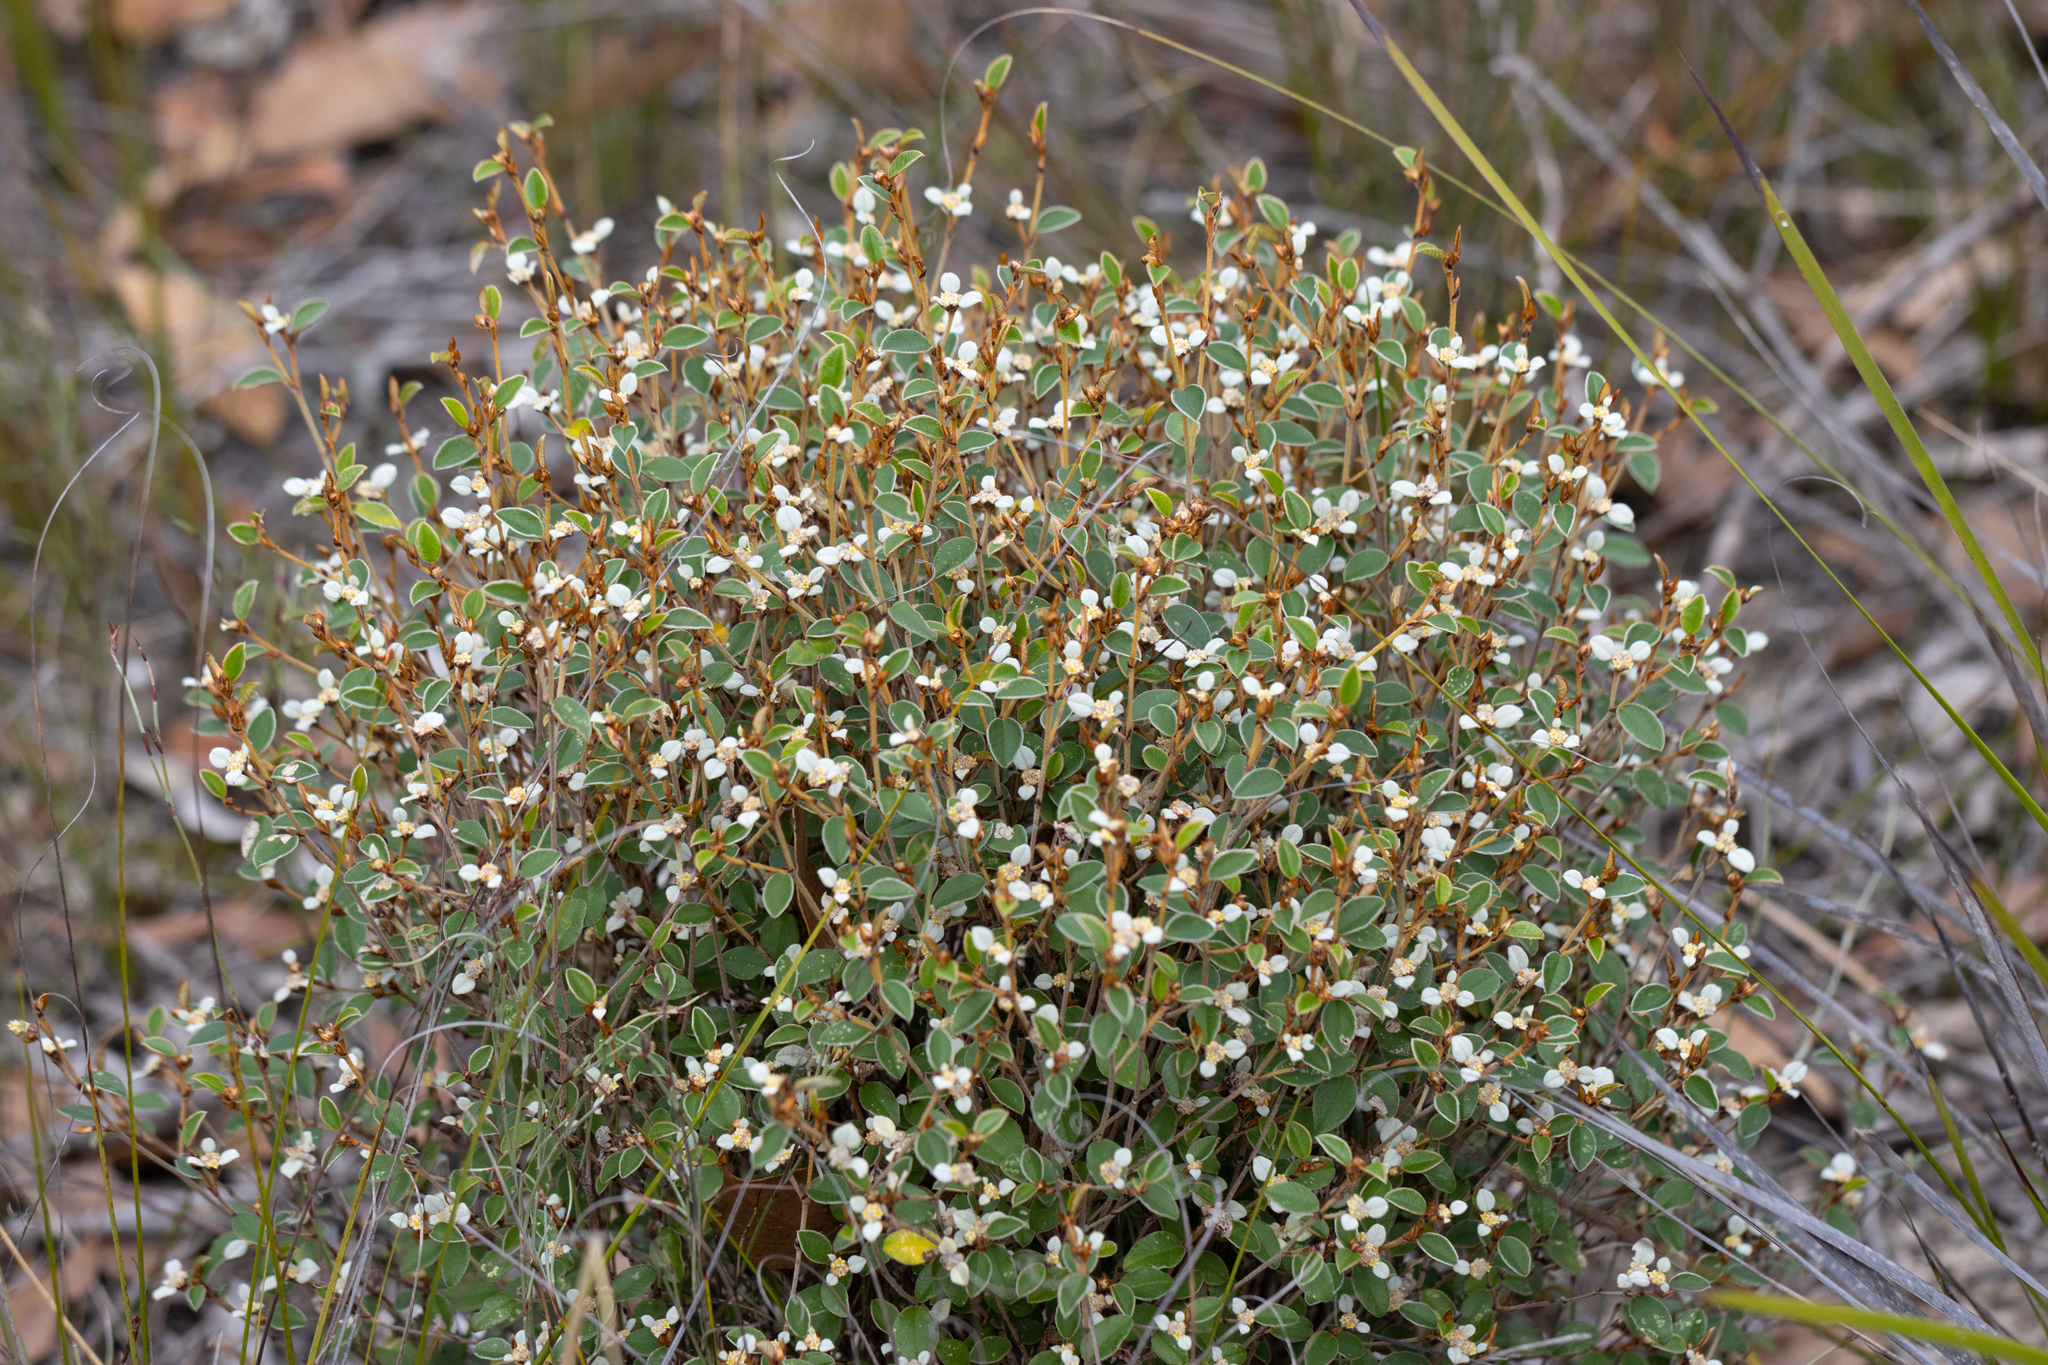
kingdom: Plantae
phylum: Tracheophyta
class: Magnoliopsida
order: Rosales
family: Rhamnaceae
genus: Spyridium
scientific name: Spyridium thymifolium
